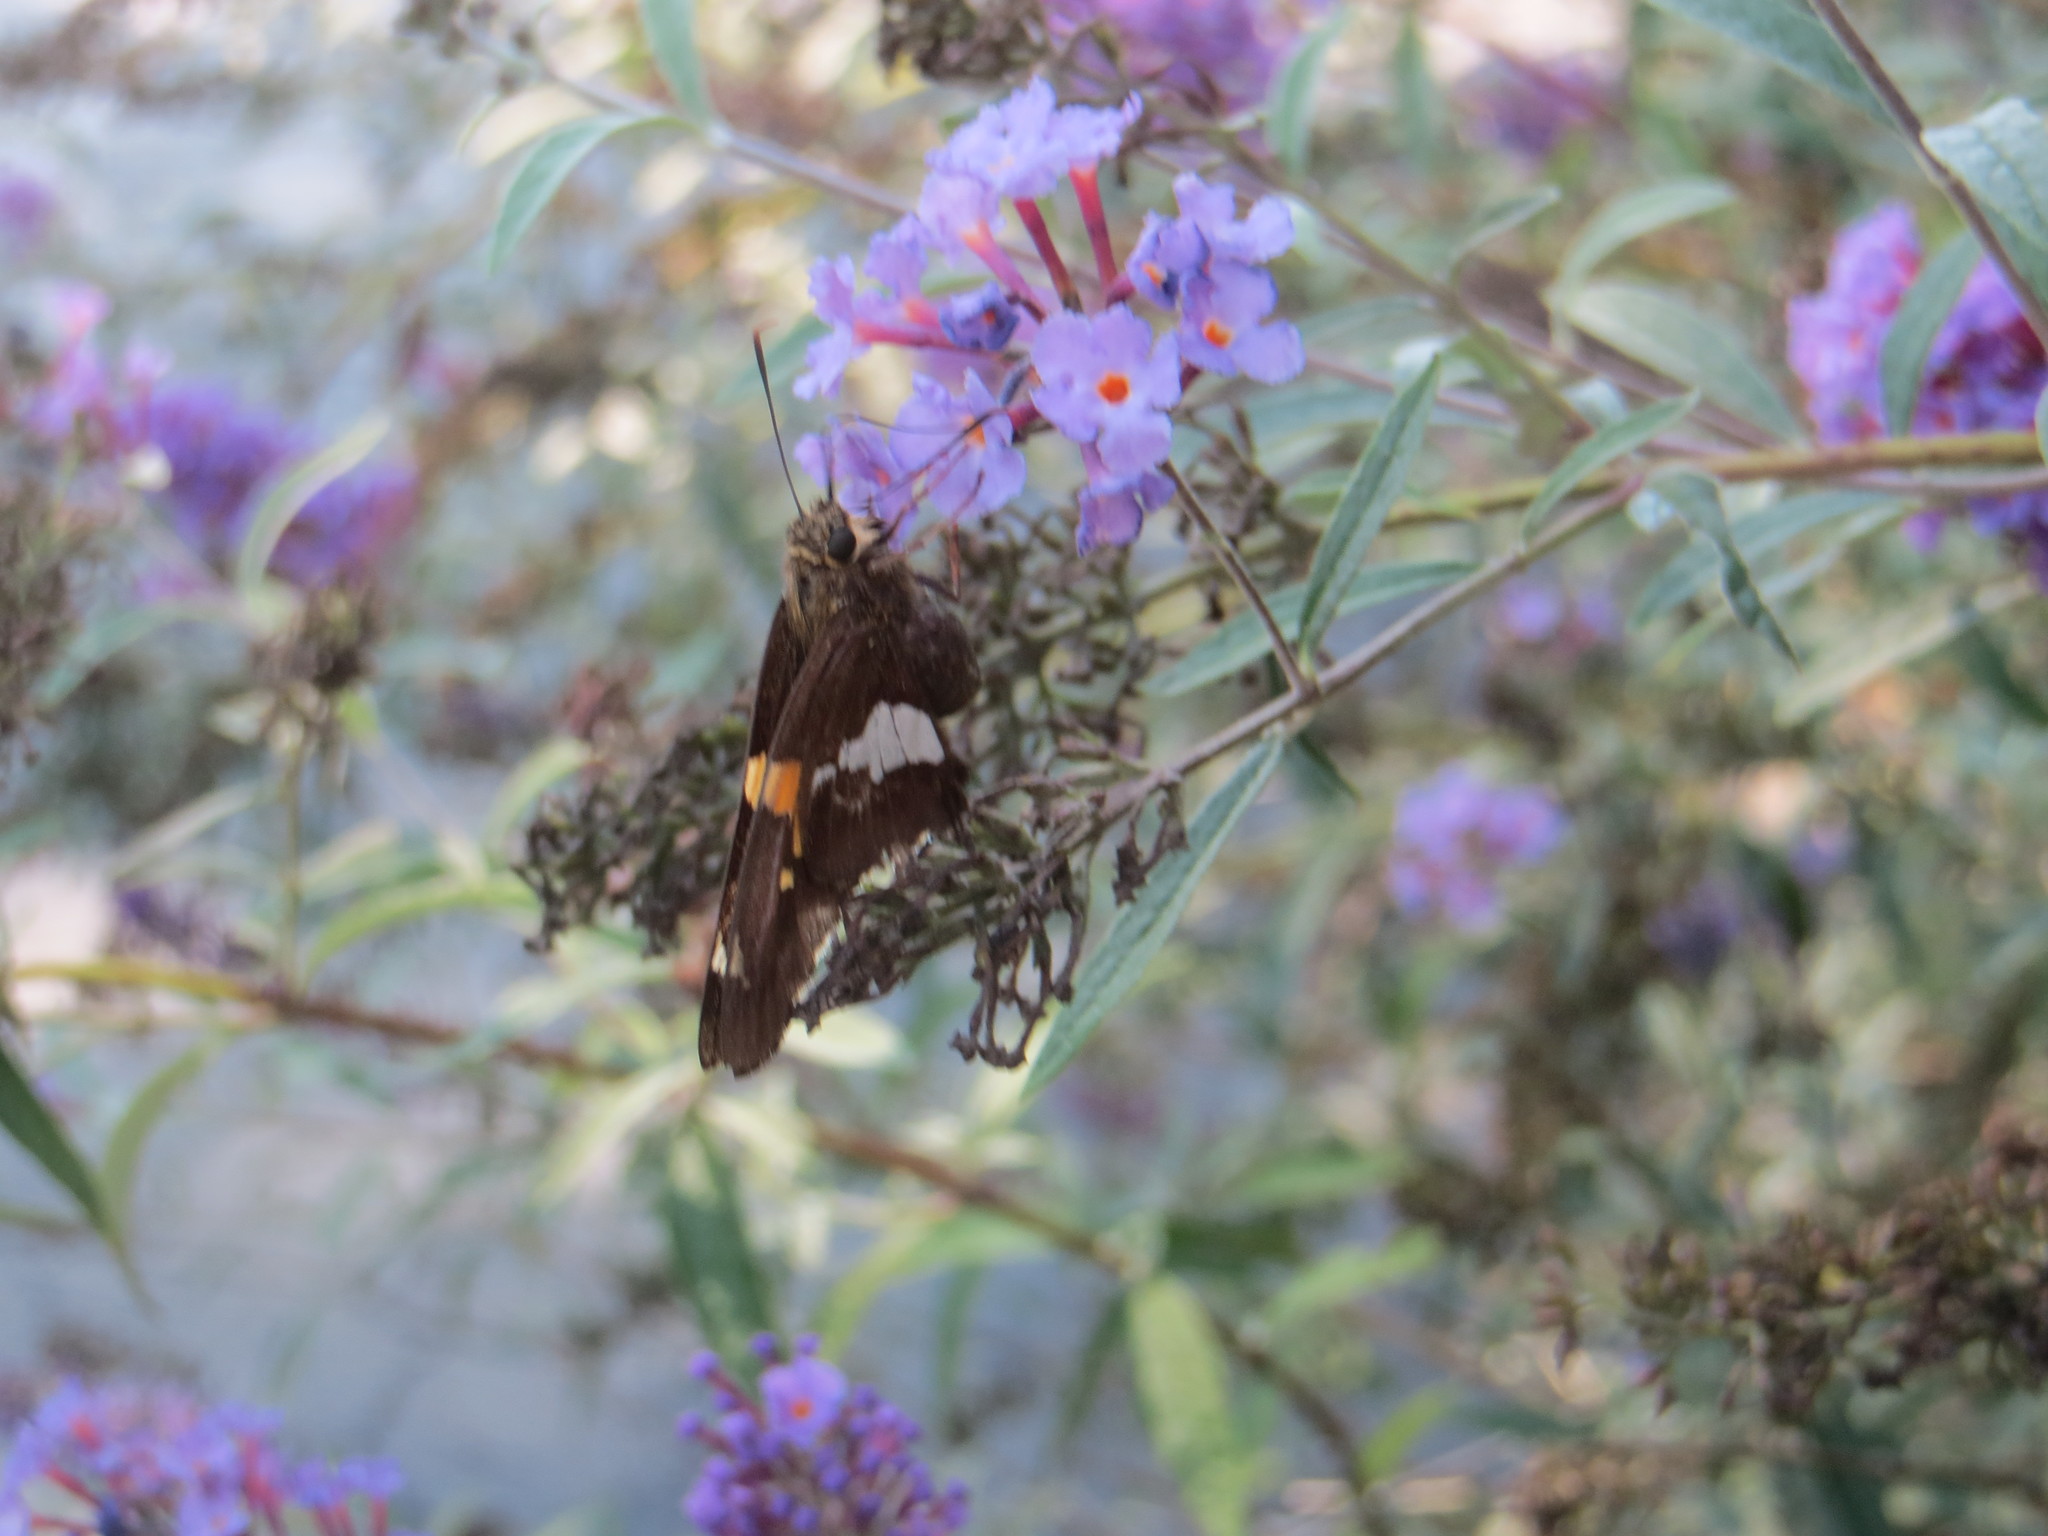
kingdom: Animalia
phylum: Arthropoda
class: Insecta
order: Lepidoptera
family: Hesperiidae
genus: Epargyreus
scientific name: Epargyreus clarus
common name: Silver-spotted skipper
